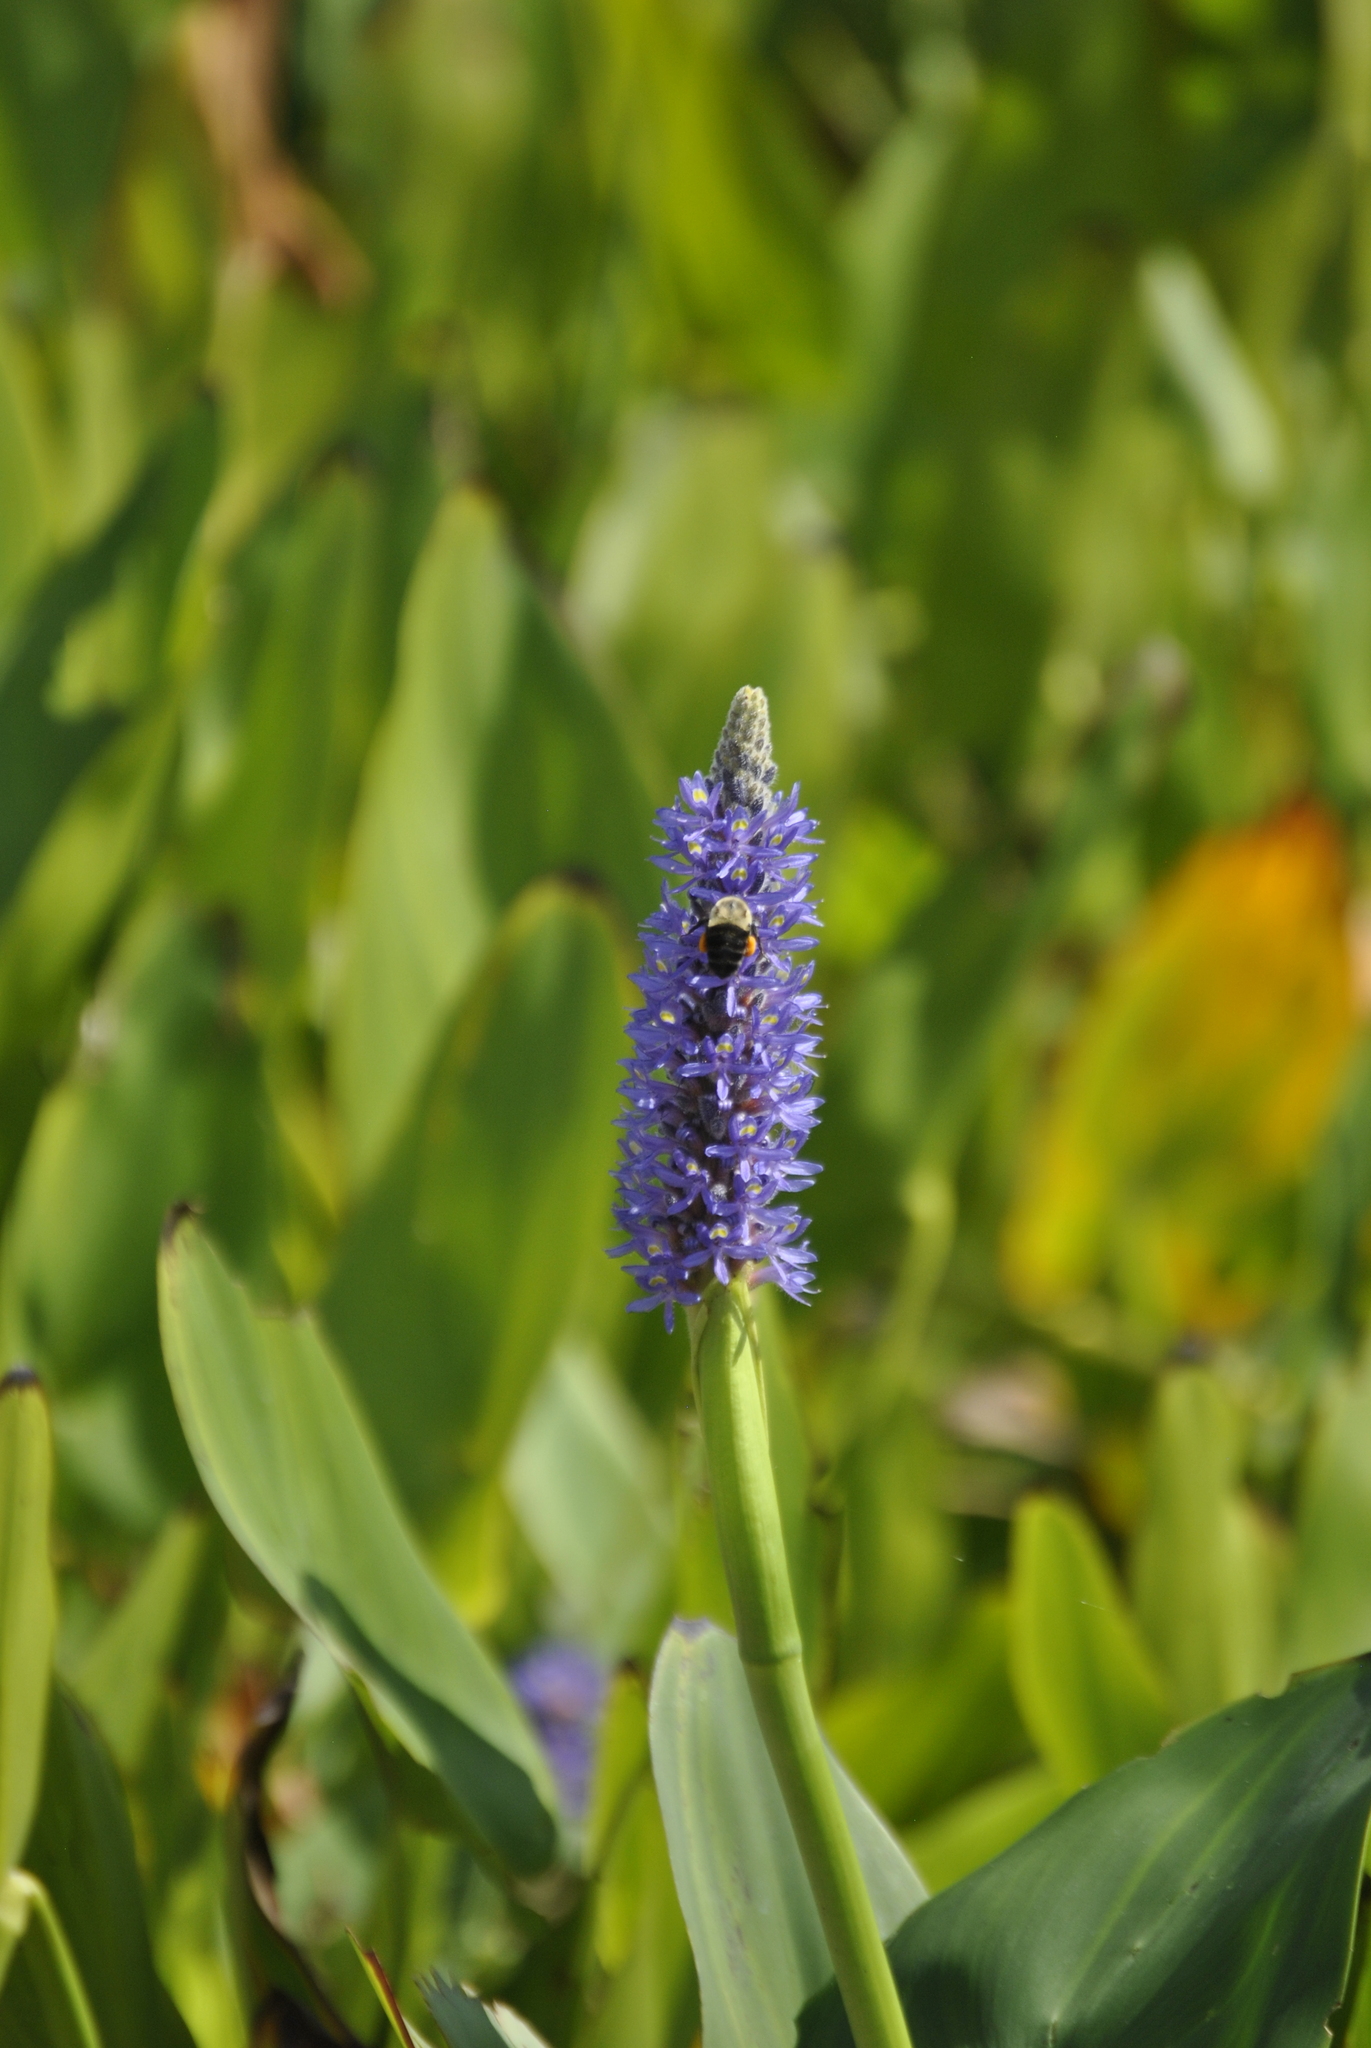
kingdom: Animalia
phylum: Arthropoda
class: Insecta
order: Hymenoptera
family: Apidae
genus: Bombus
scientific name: Bombus impatiens
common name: Common eastern bumble bee
